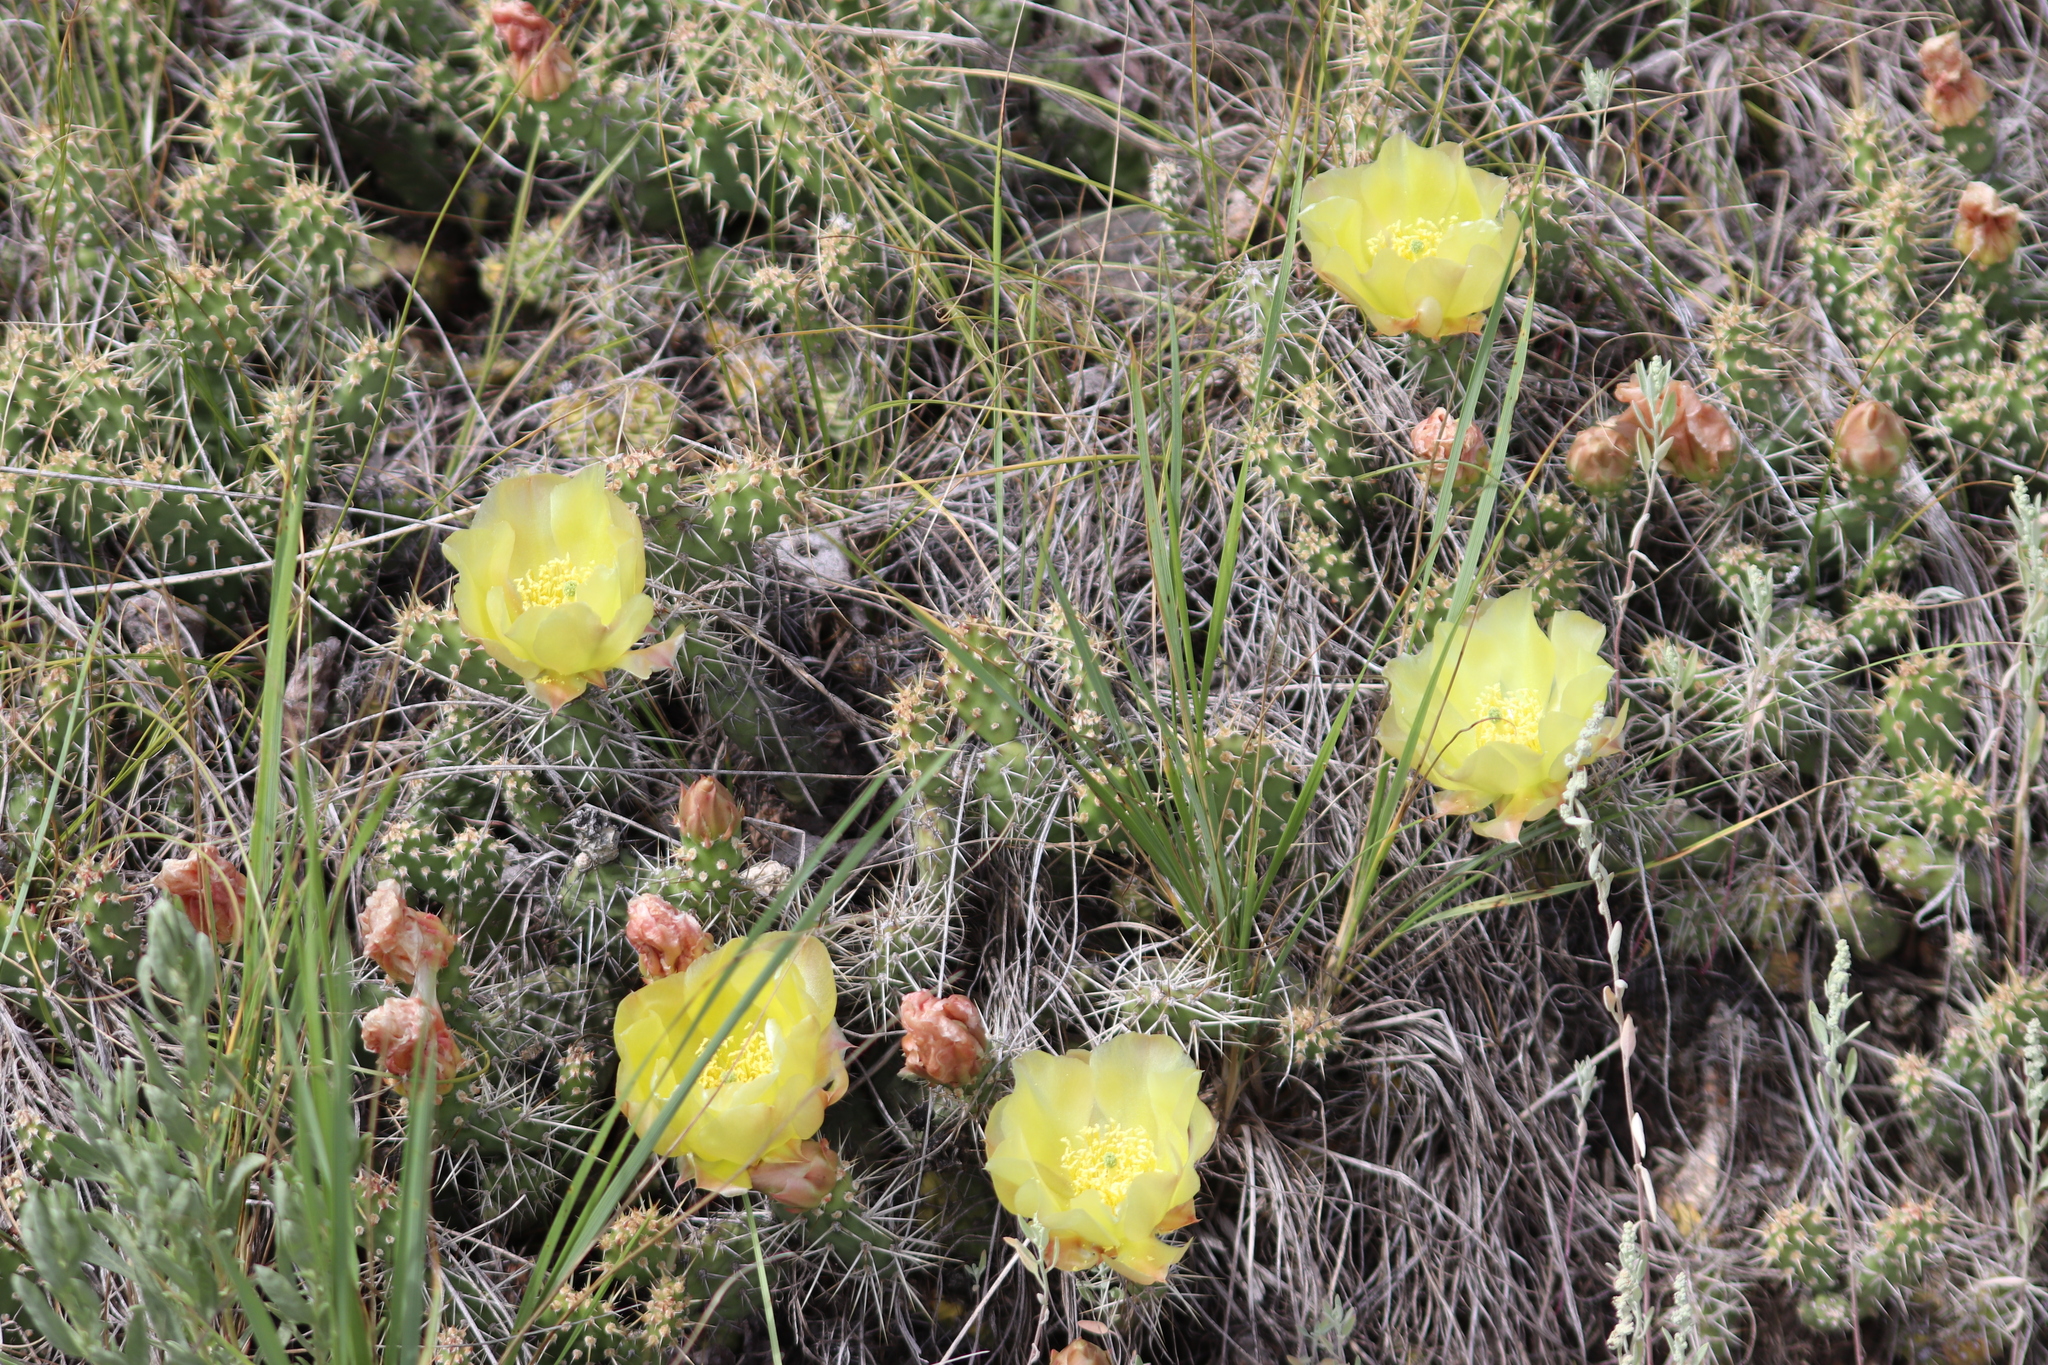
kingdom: Plantae
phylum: Tracheophyta
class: Magnoliopsida
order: Caryophyllales
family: Cactaceae
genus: Opuntia
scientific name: Opuntia fragilis
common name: Brittle cactus
